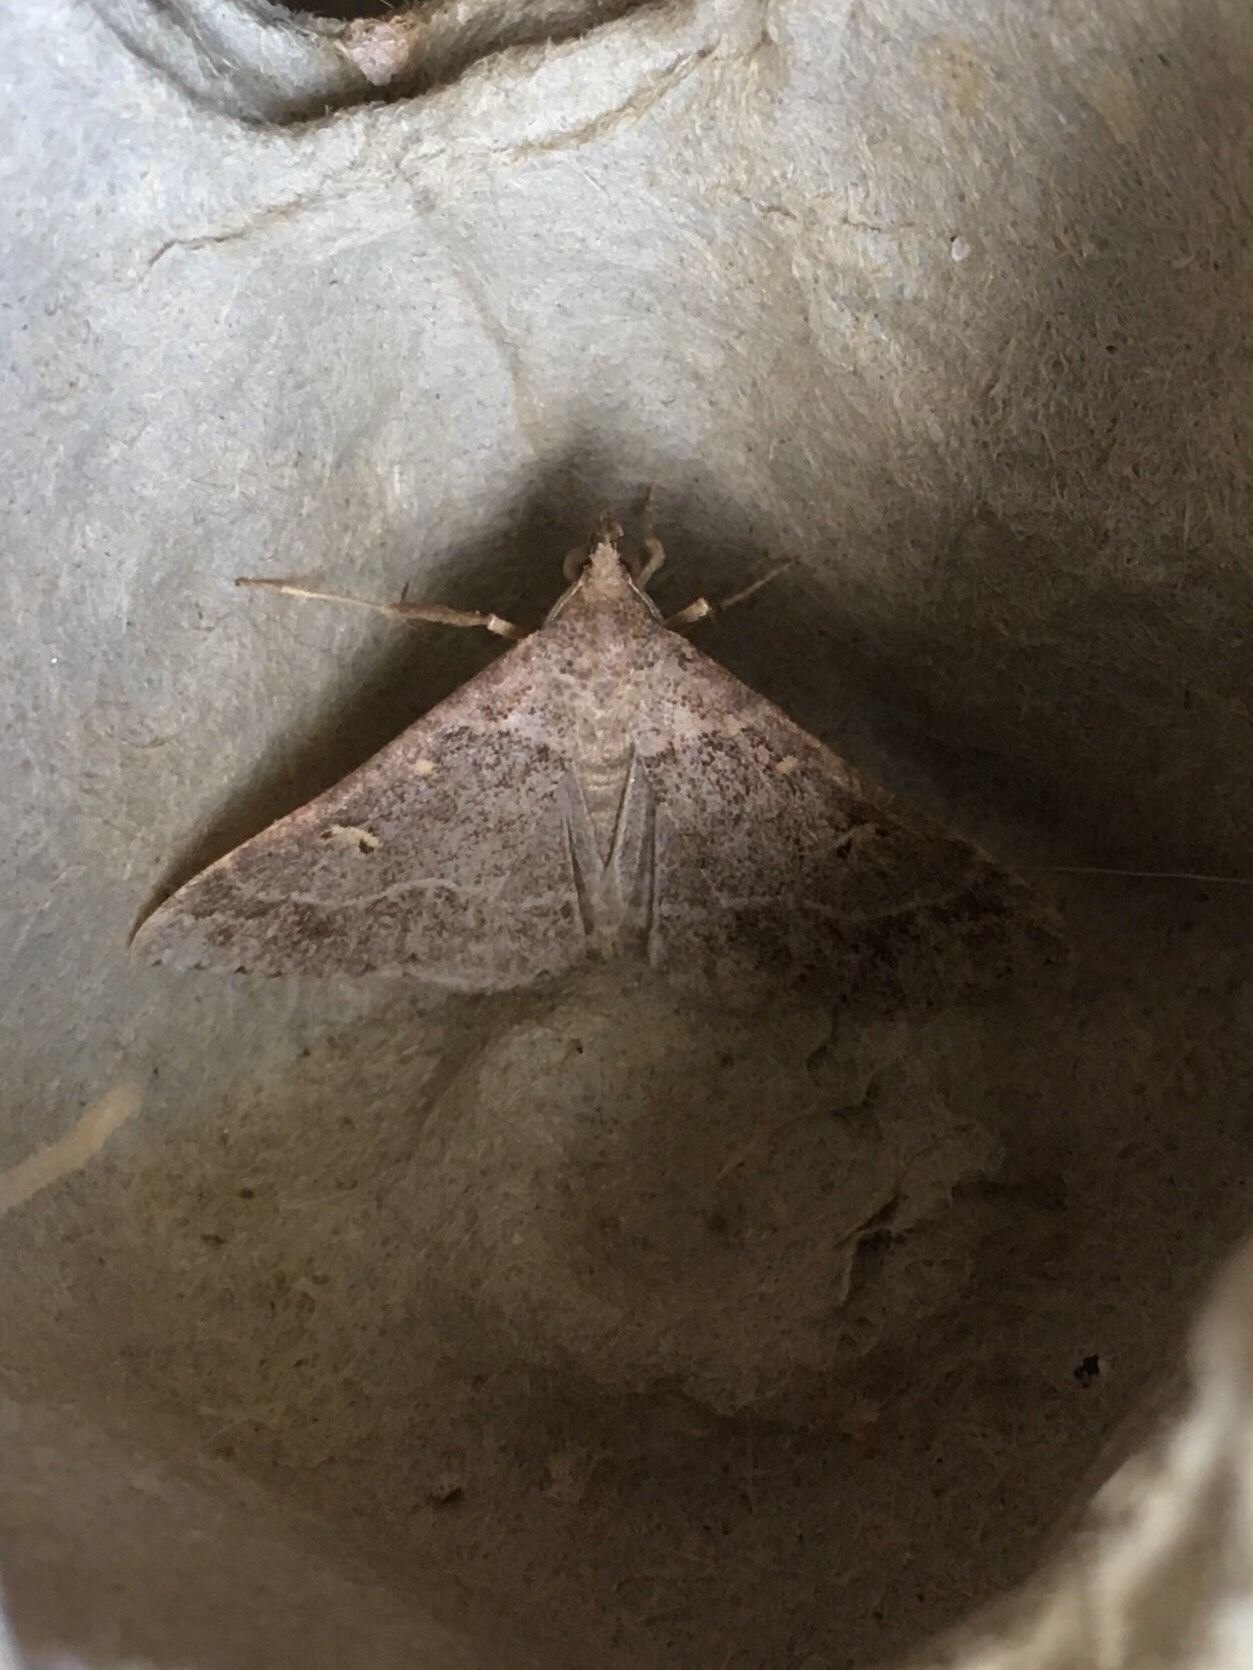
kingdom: Animalia
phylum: Arthropoda
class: Insecta
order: Lepidoptera
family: Erebidae
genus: Renia
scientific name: Renia flavipunctalis
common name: Yellow-spotted renia moth
